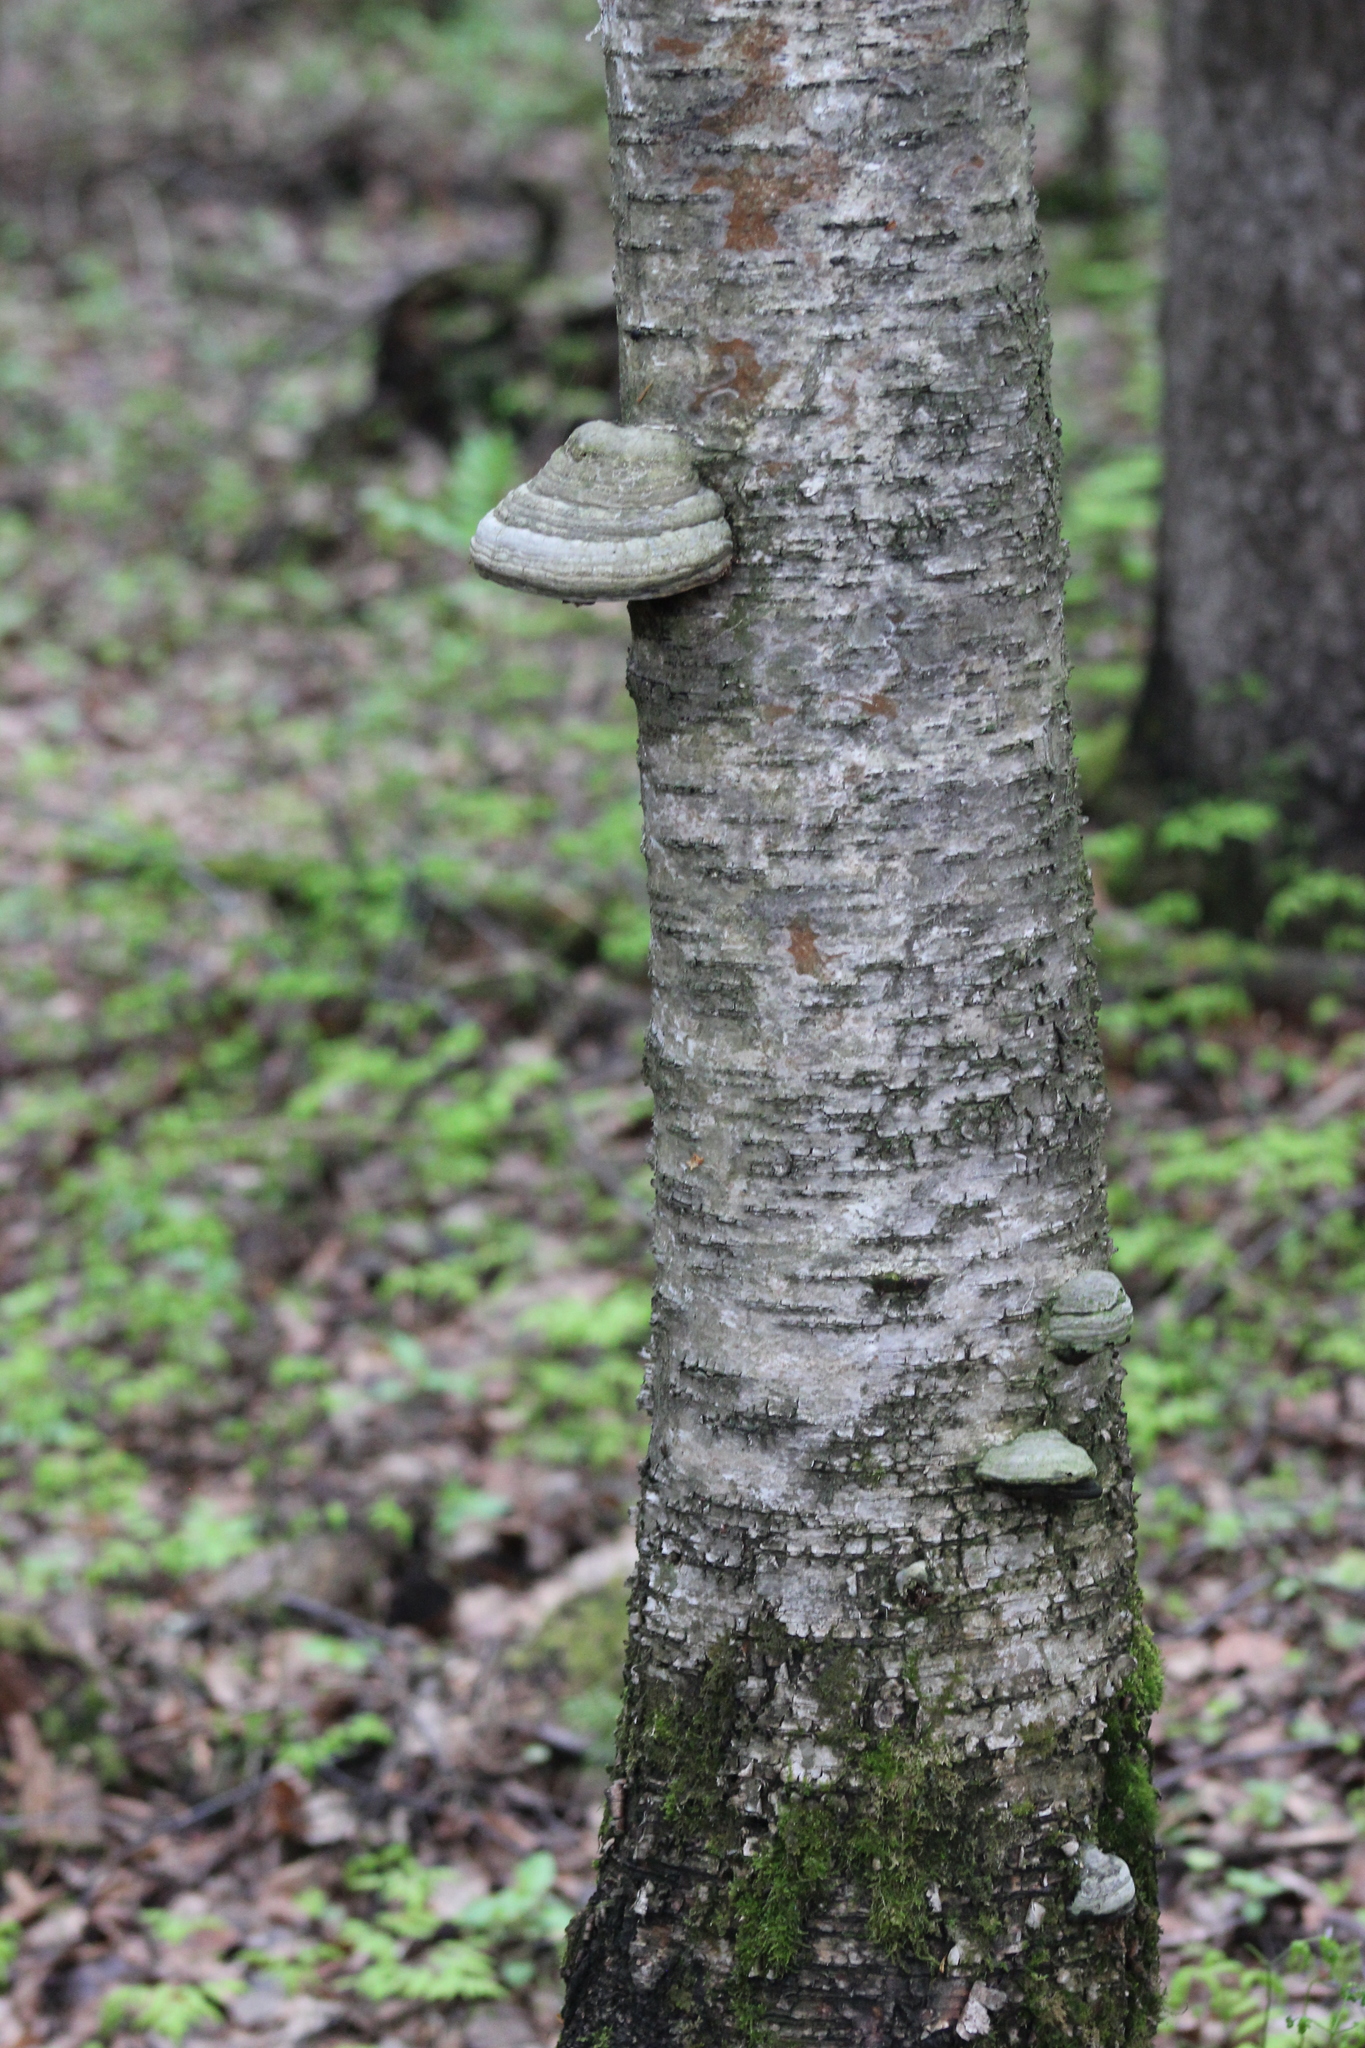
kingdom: Fungi
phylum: Basidiomycota
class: Agaricomycetes
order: Polyporales
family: Polyporaceae
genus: Fomes
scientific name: Fomes fomentarius
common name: Hoof fungus
